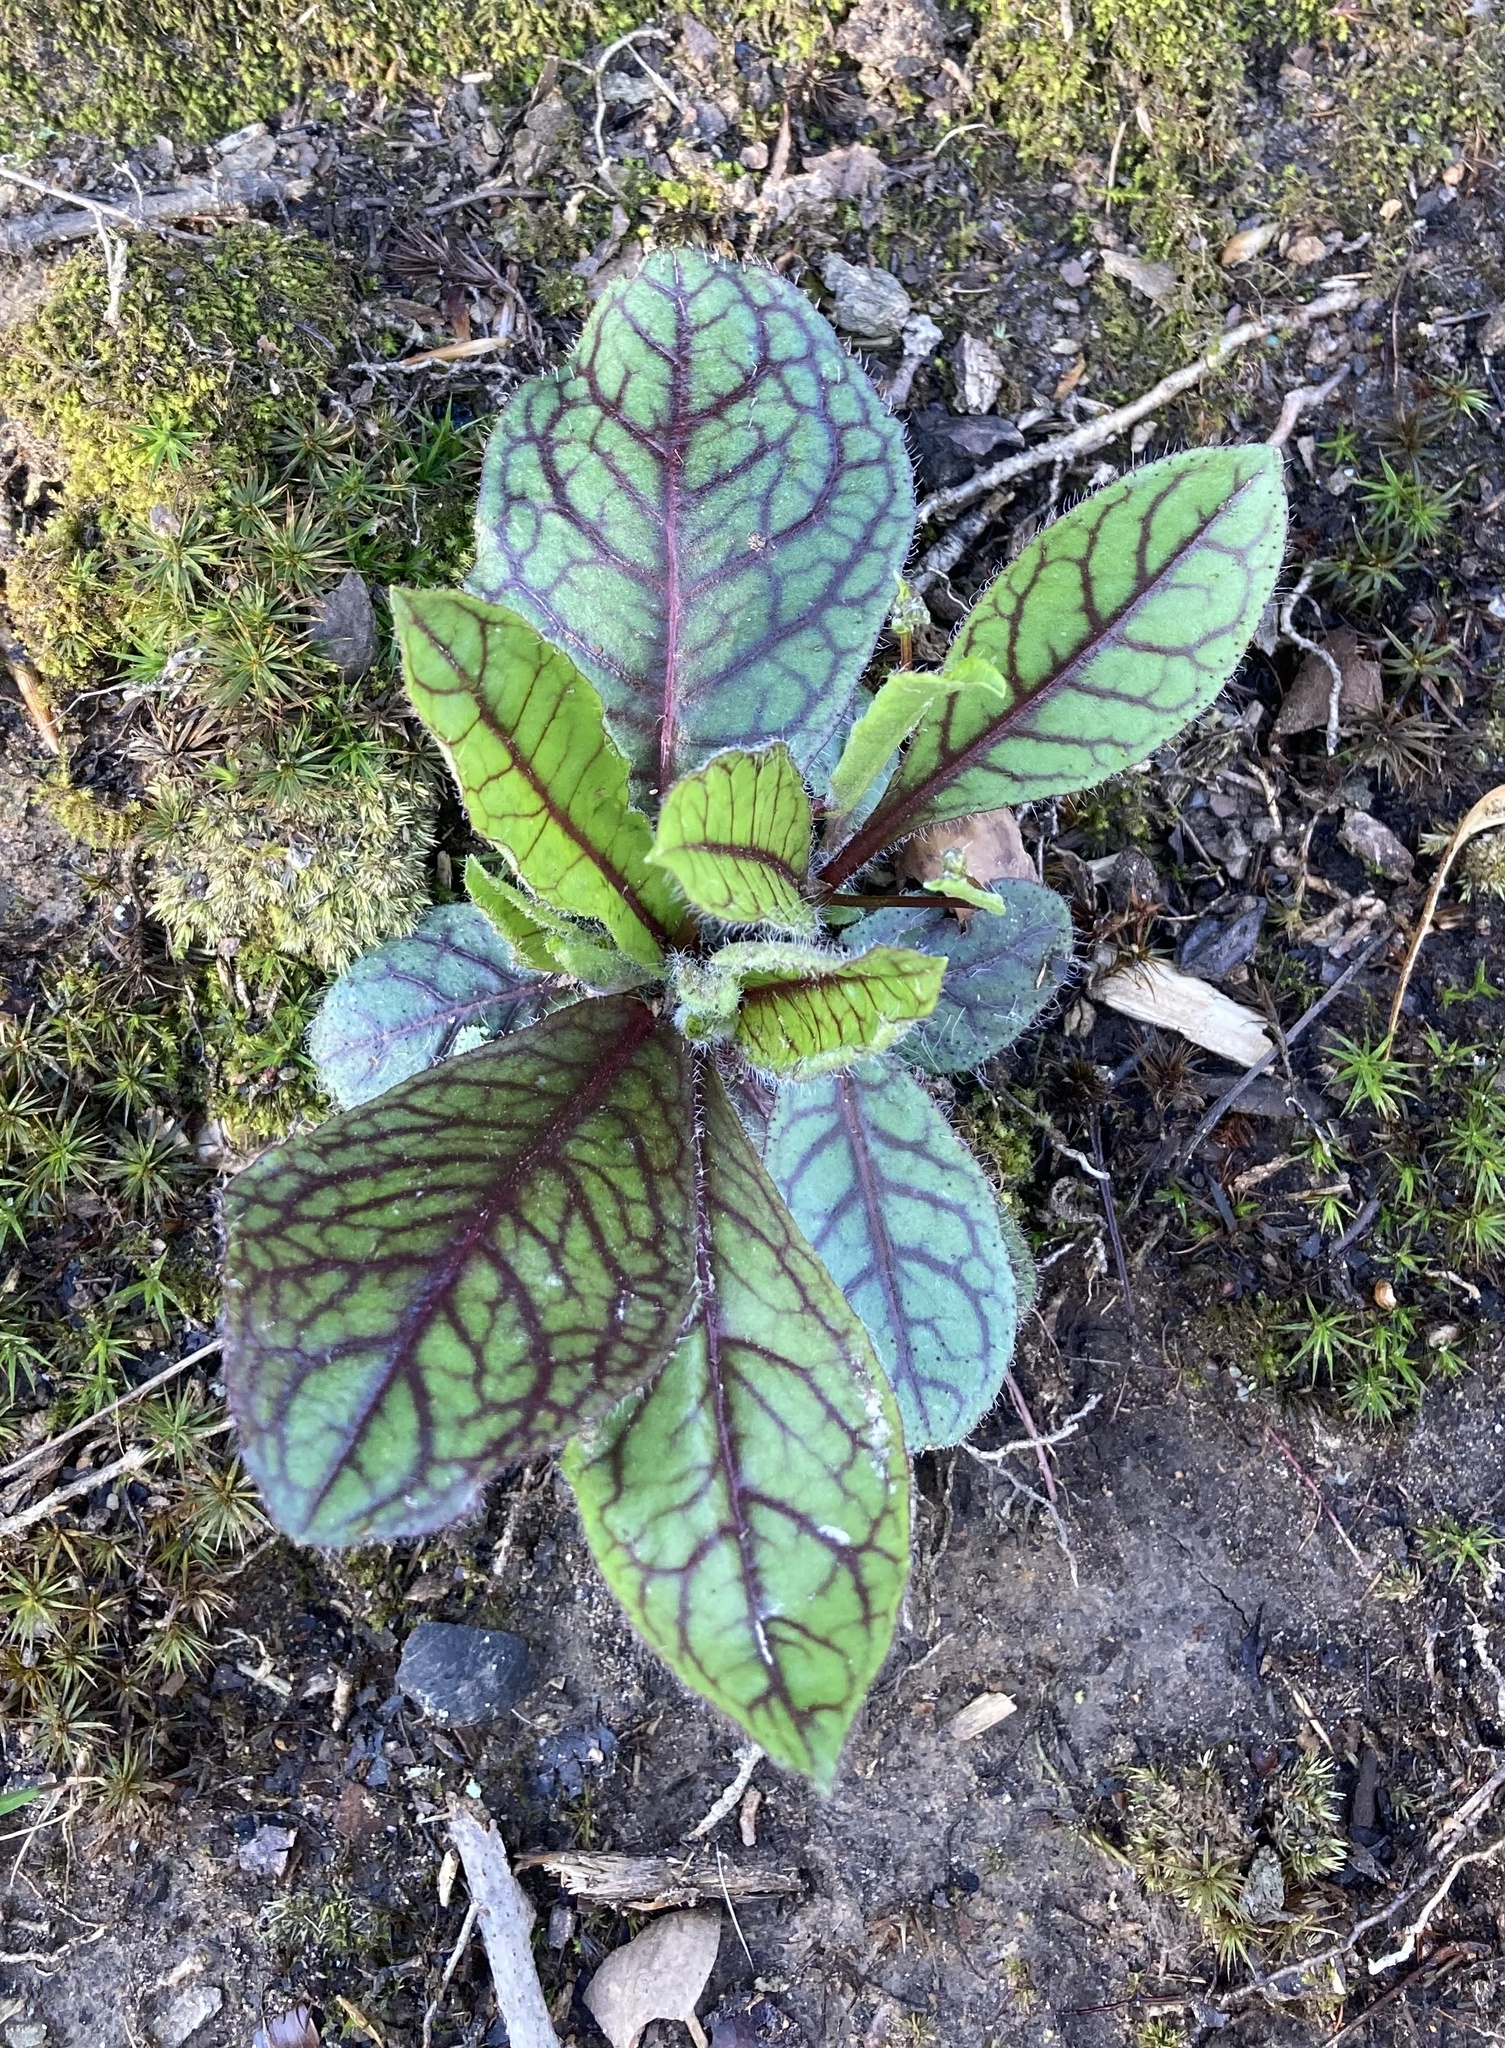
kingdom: Plantae
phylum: Tracheophyta
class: Magnoliopsida
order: Asterales
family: Asteraceae
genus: Hieracium
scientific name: Hieracium venosum
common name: Rattlesnake hawkweed
